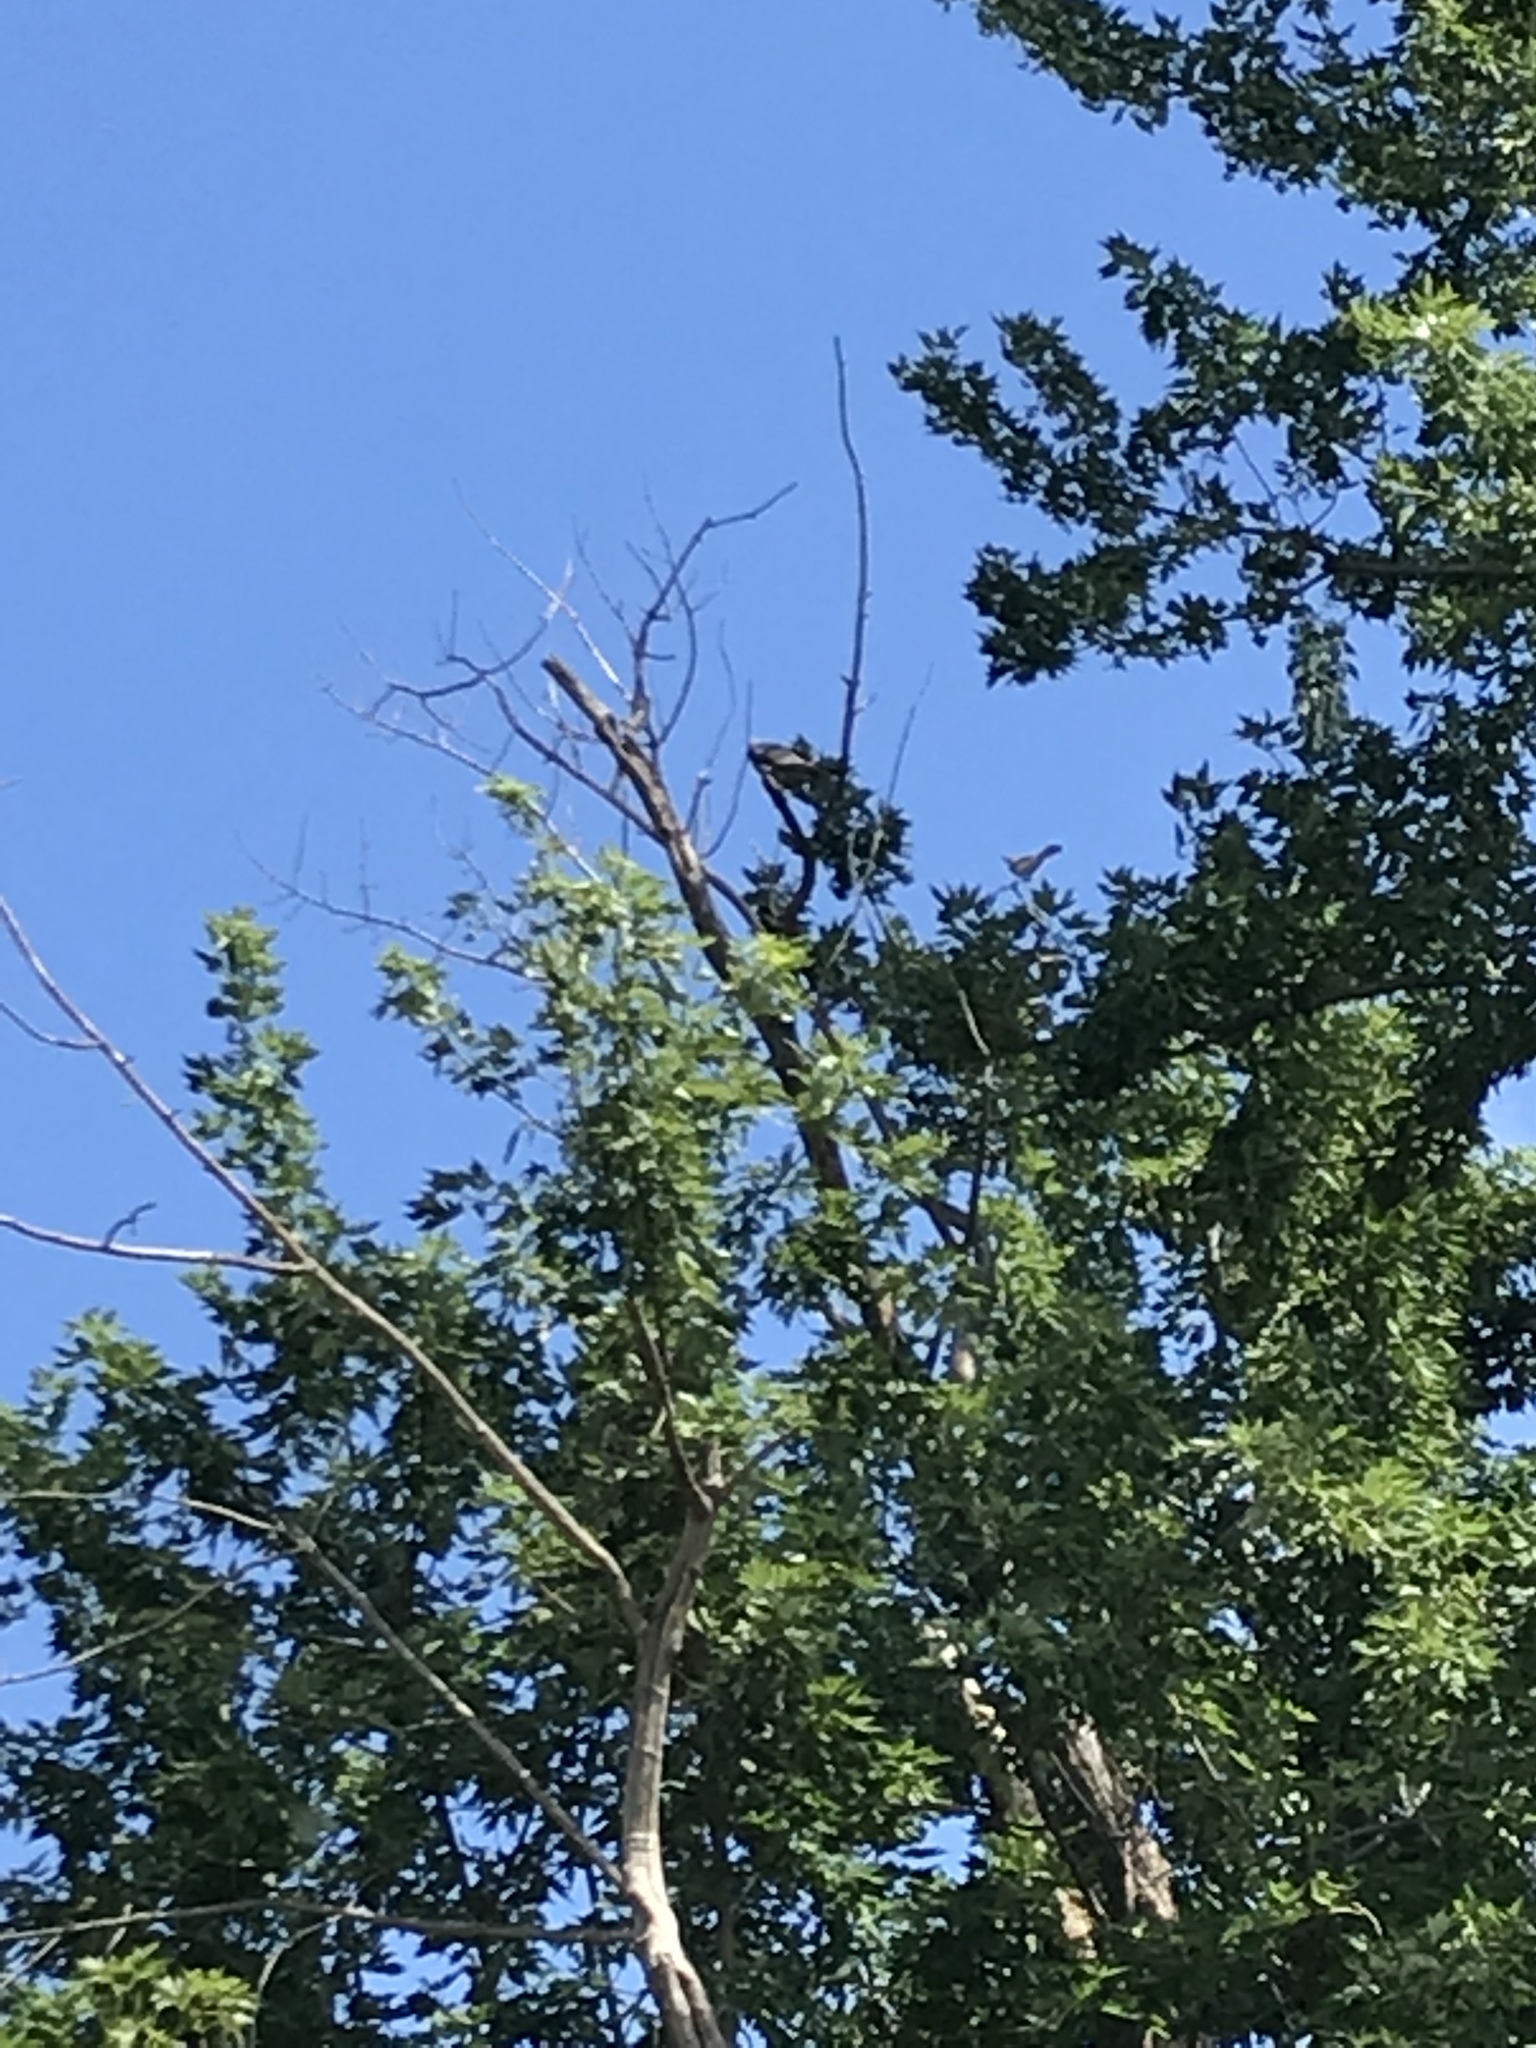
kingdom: Animalia
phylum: Chordata
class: Aves
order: Accipitriformes
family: Accipitridae
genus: Ictinia
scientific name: Ictinia mississippiensis
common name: Mississippi kite
